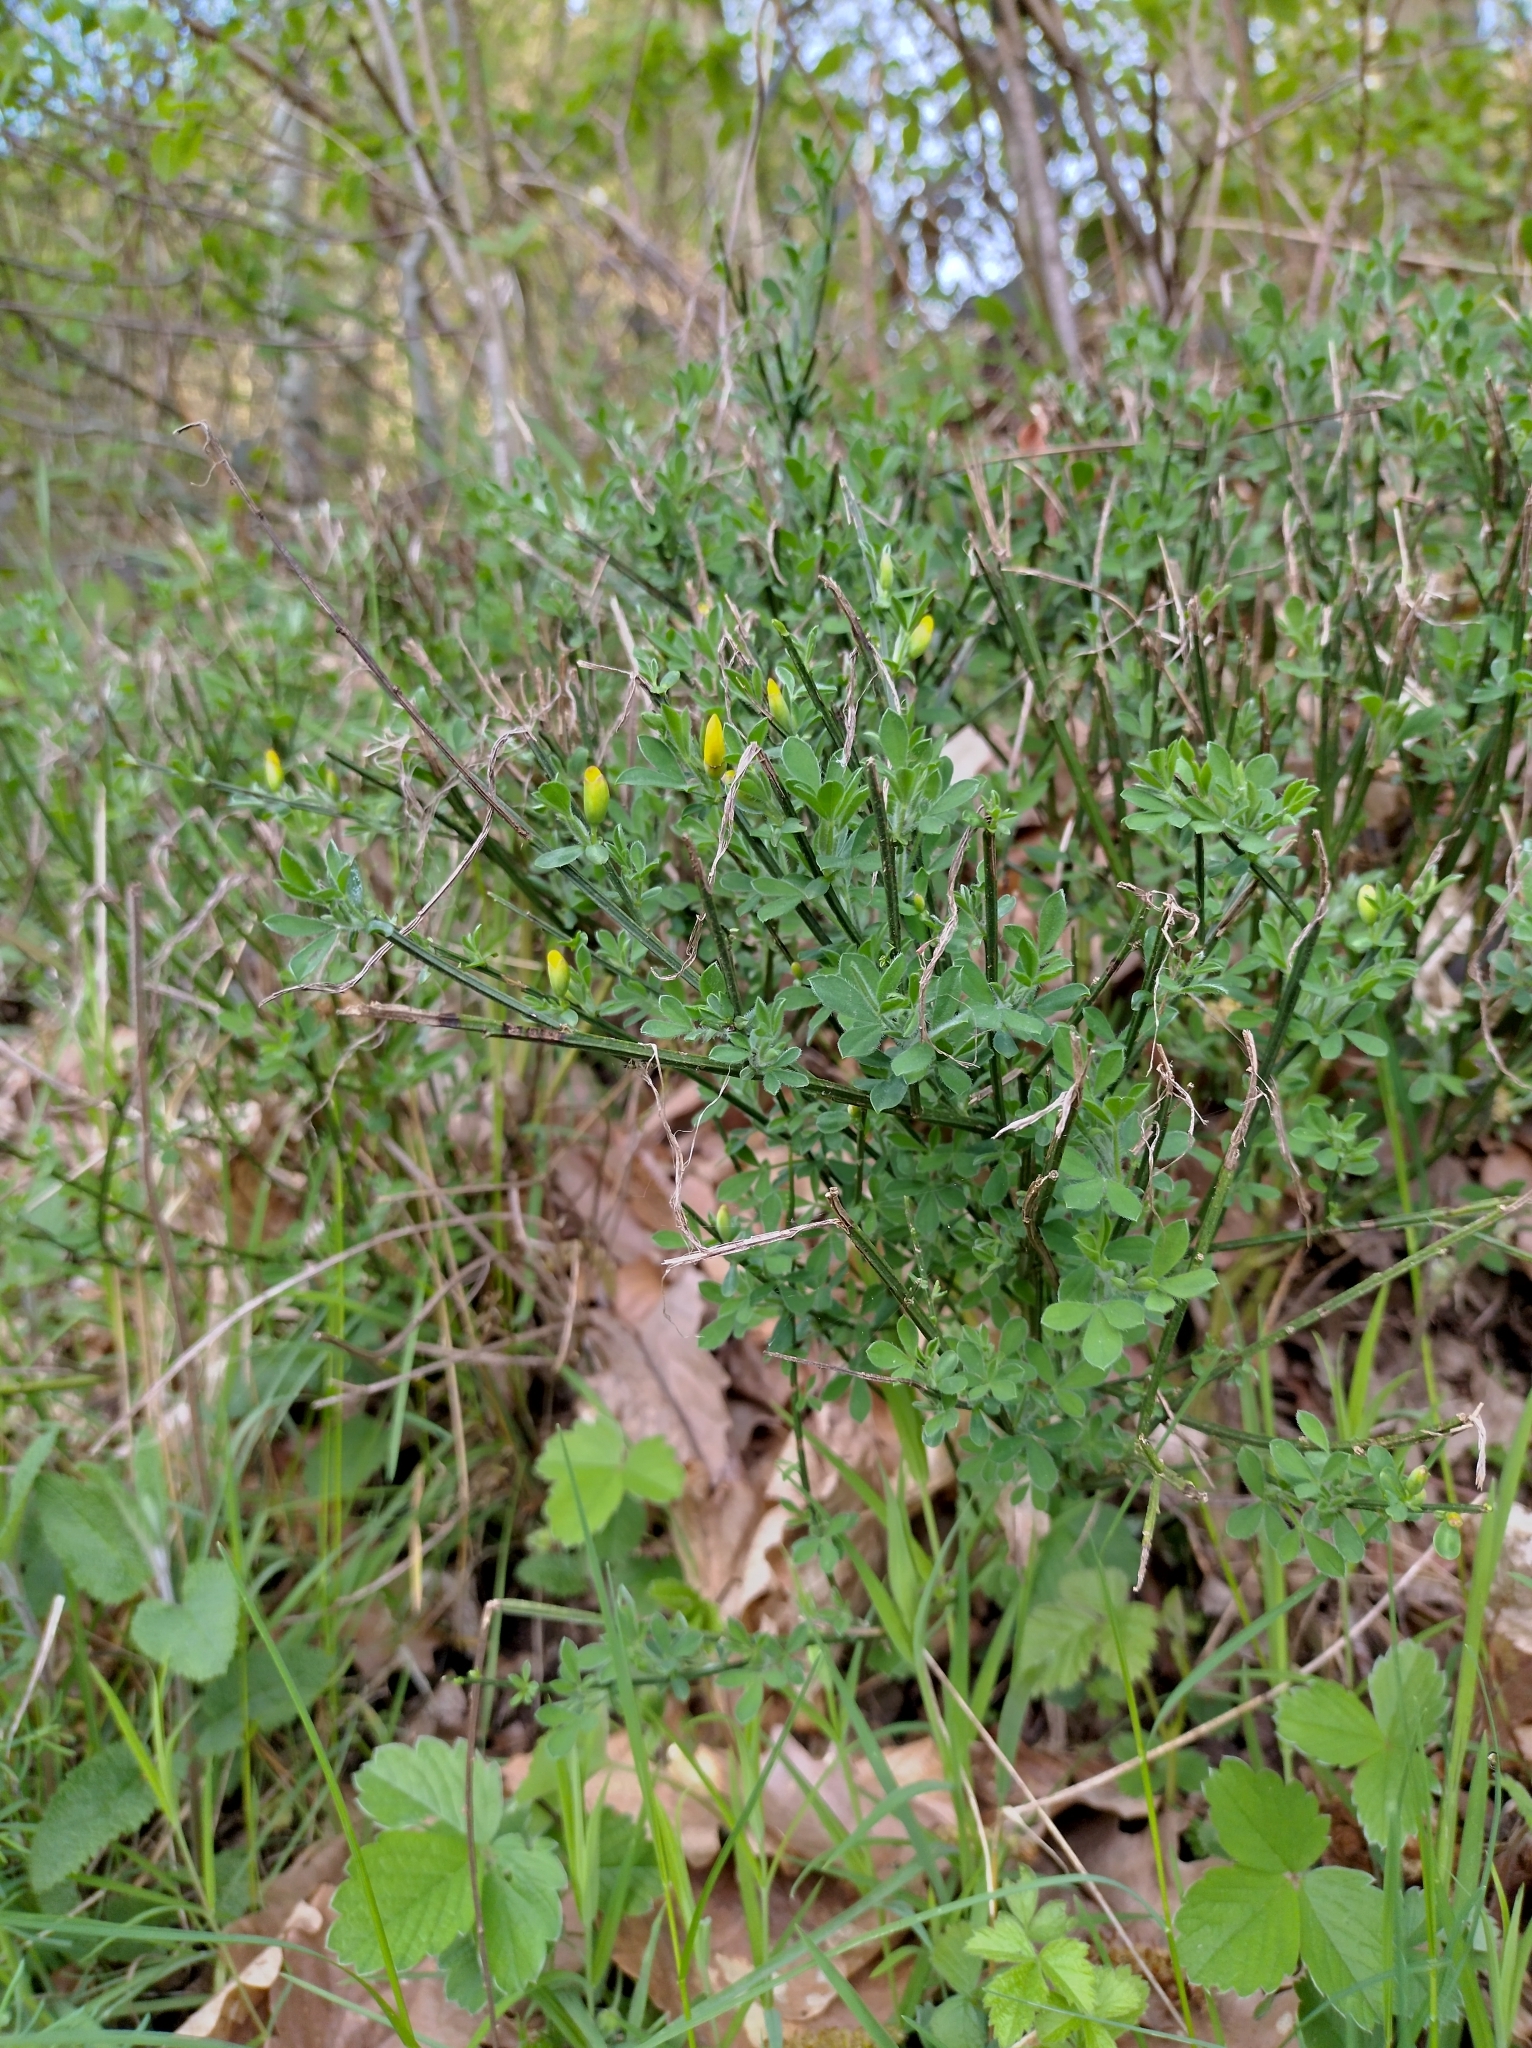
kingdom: Plantae
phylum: Tracheophyta
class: Magnoliopsida
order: Fabales
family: Fabaceae
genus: Cytisus
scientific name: Cytisus scoparius
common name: Scotch broom
